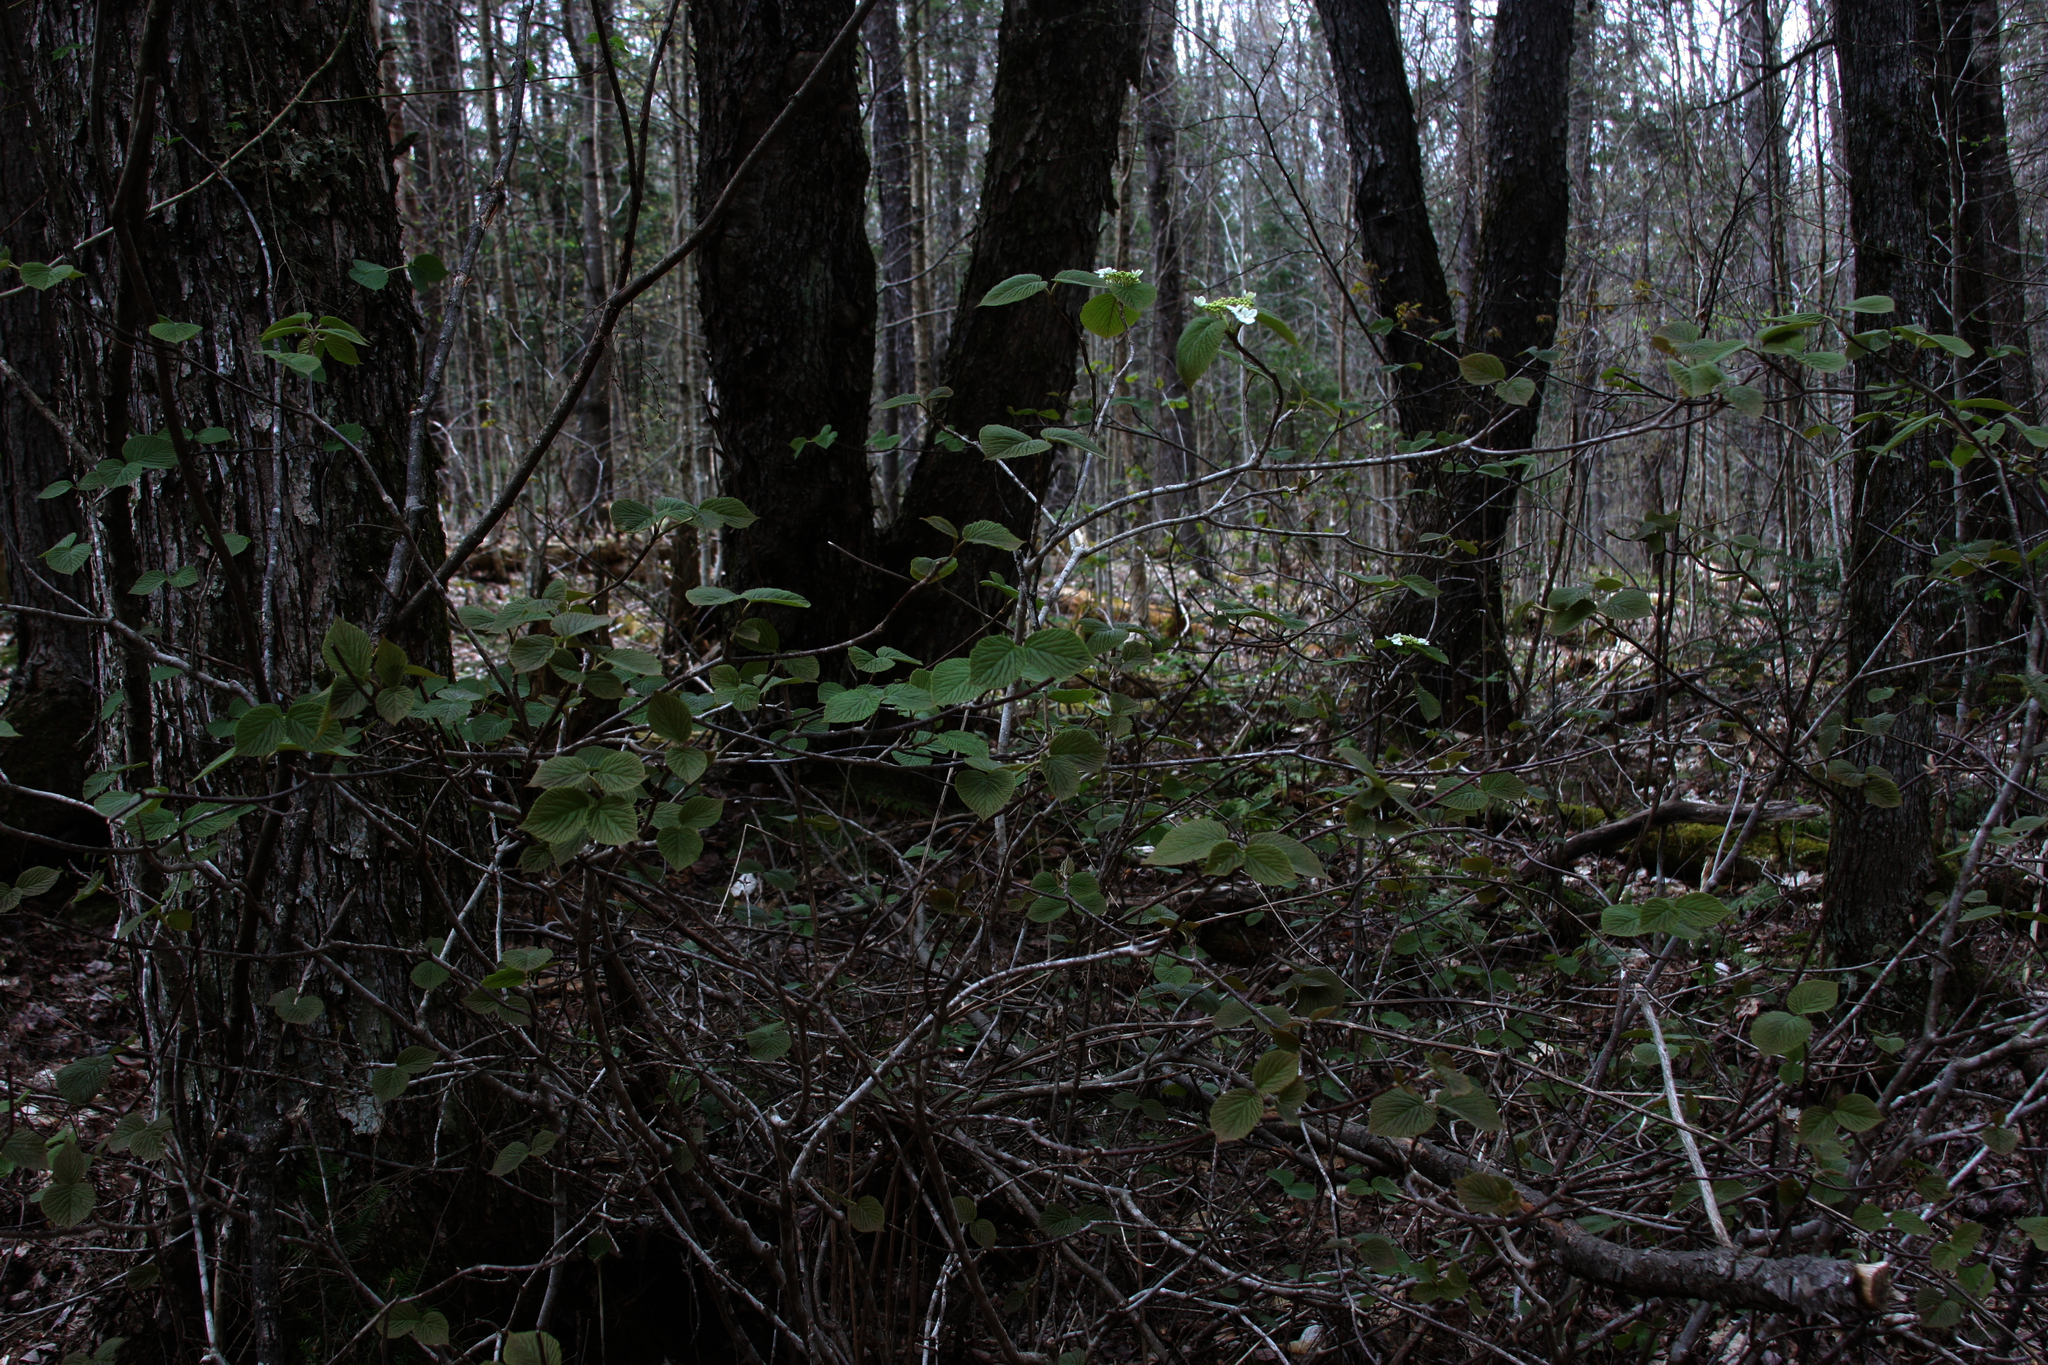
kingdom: Plantae
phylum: Tracheophyta
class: Magnoliopsida
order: Dipsacales
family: Viburnaceae
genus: Viburnum
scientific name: Viburnum lantanoides
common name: Hobblebush
